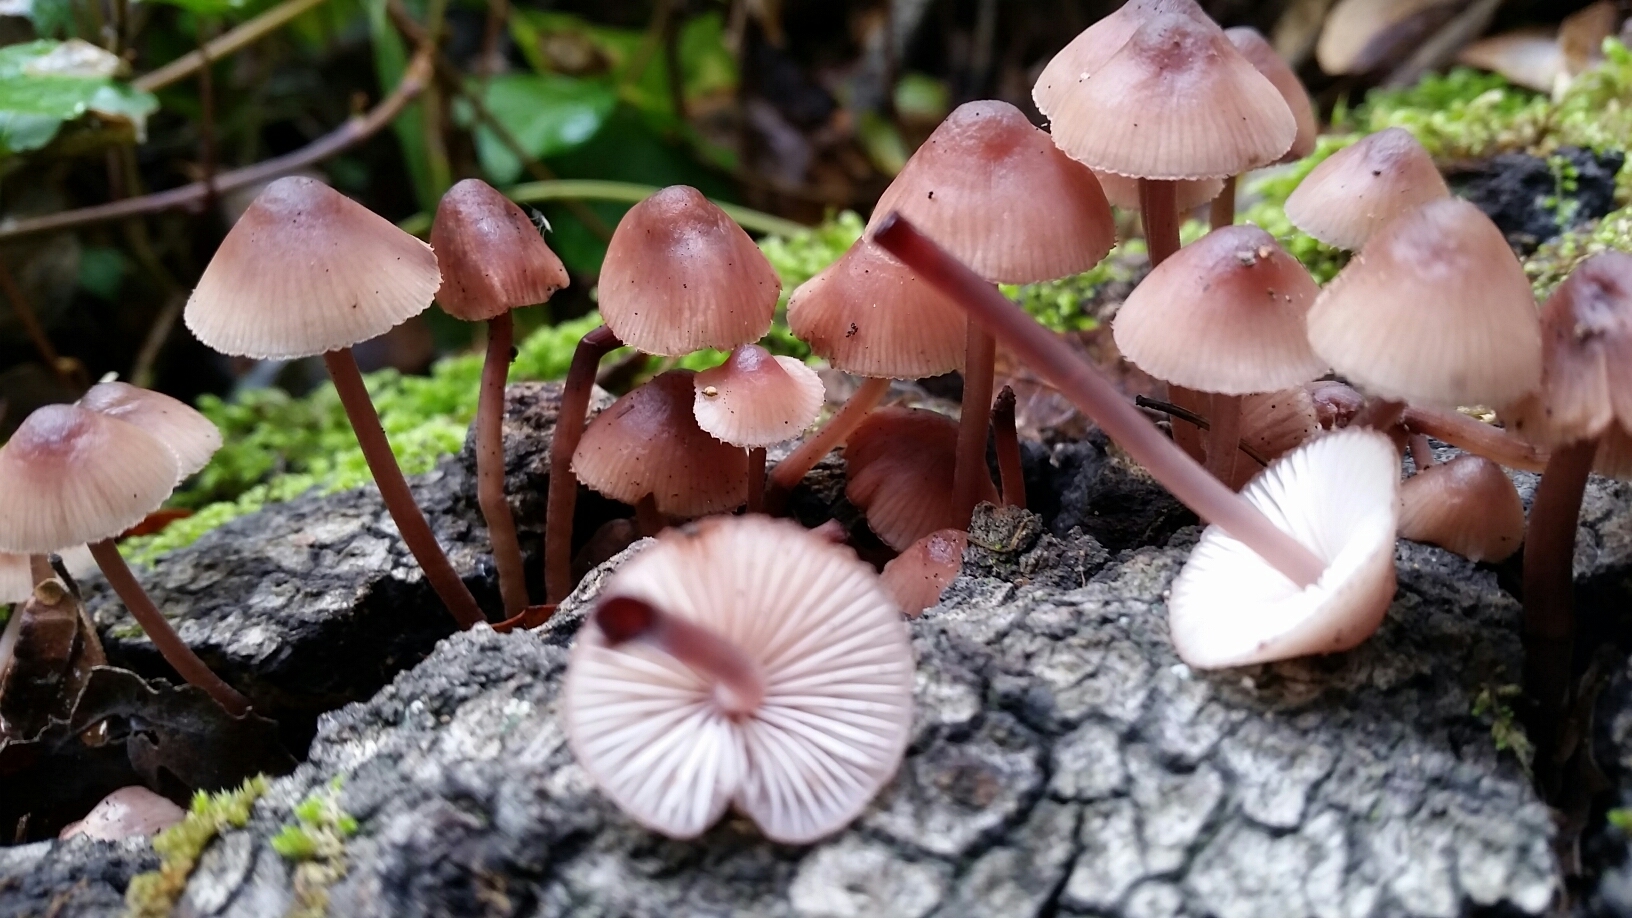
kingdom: Fungi
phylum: Basidiomycota
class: Agaricomycetes
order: Agaricales
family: Mycenaceae
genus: Mycena
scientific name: Mycena haematopus
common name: Burgundydrop bonnet
